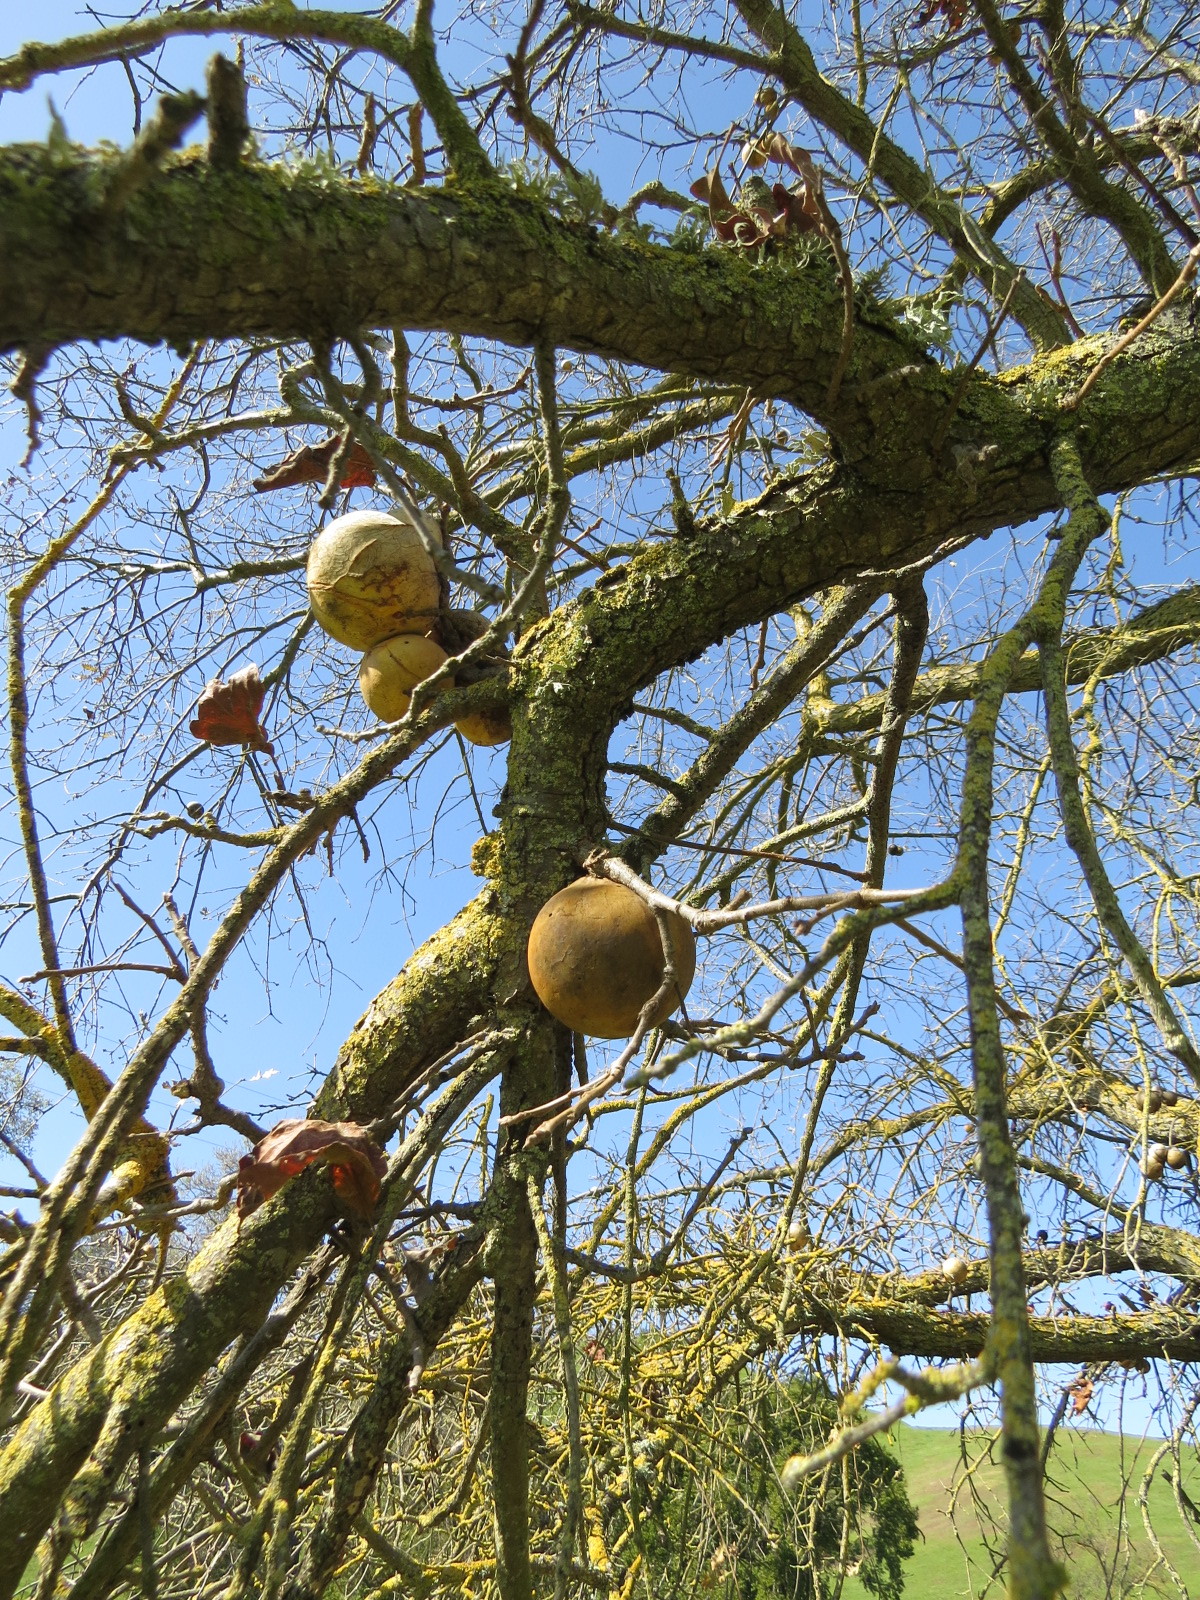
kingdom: Animalia
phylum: Arthropoda
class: Insecta
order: Hymenoptera
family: Cynipidae
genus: Andricus
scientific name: Andricus quercuscalifornicus
